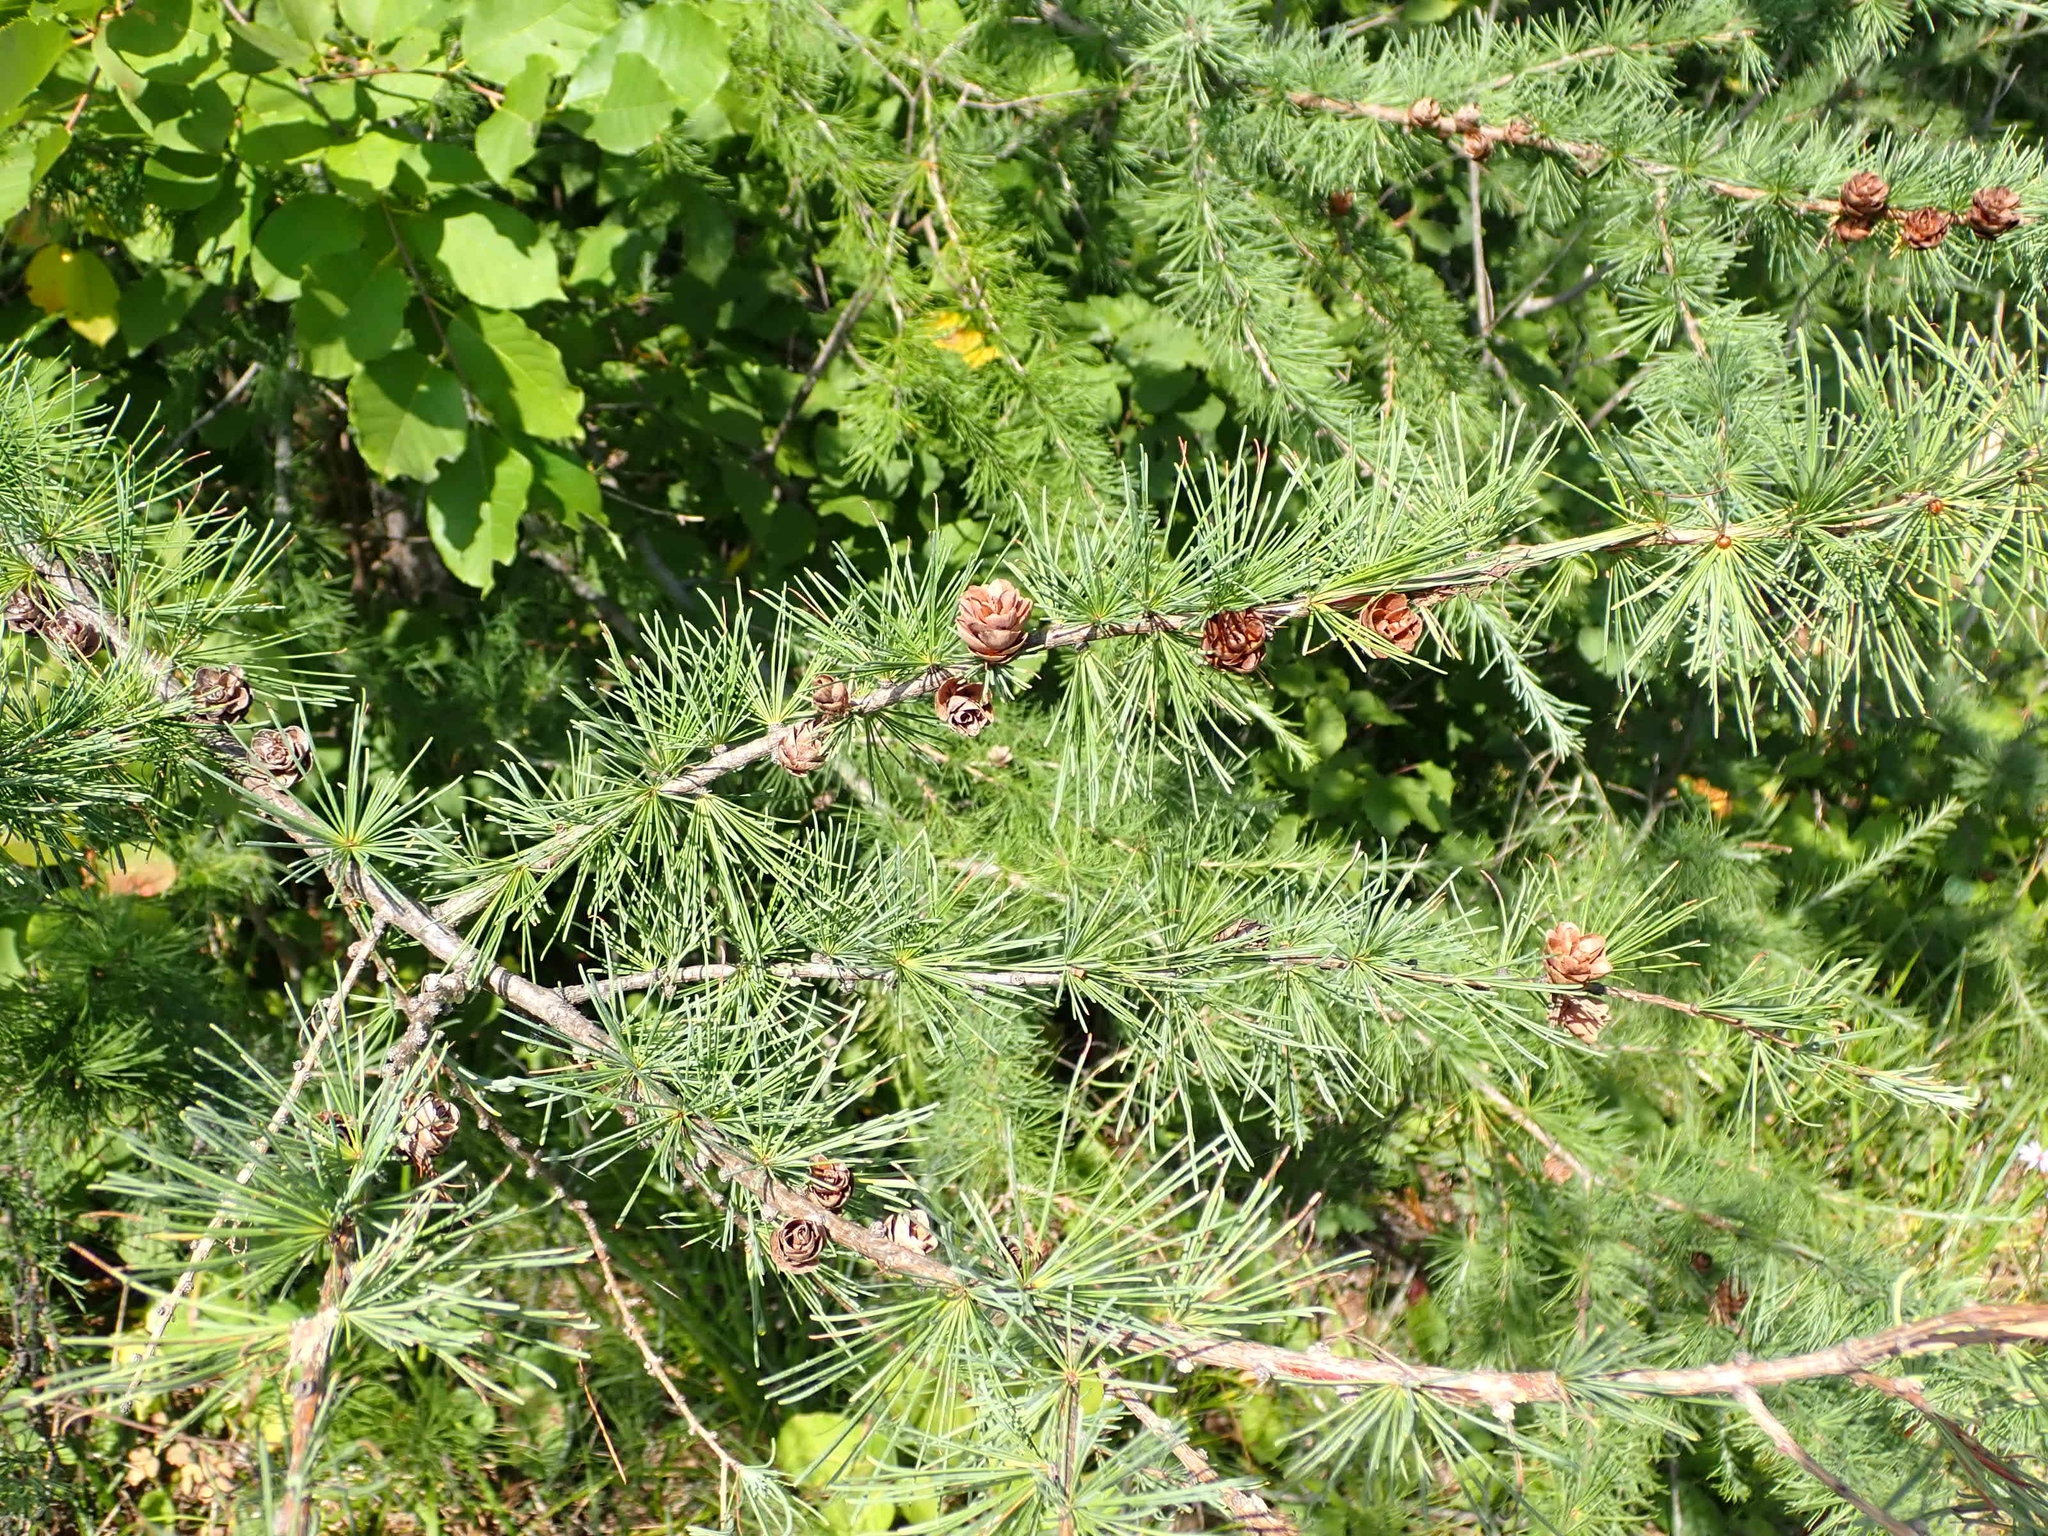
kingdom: Plantae
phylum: Tracheophyta
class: Pinopsida
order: Pinales
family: Pinaceae
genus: Larix
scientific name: Larix laricina
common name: American larch
